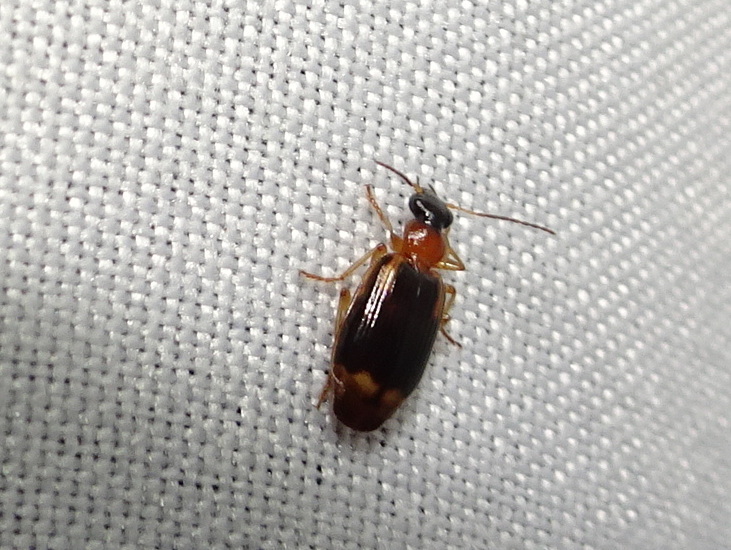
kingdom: Animalia
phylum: Arthropoda
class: Insecta
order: Coleoptera
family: Carabidae
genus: Lebia
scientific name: Lebia analis
